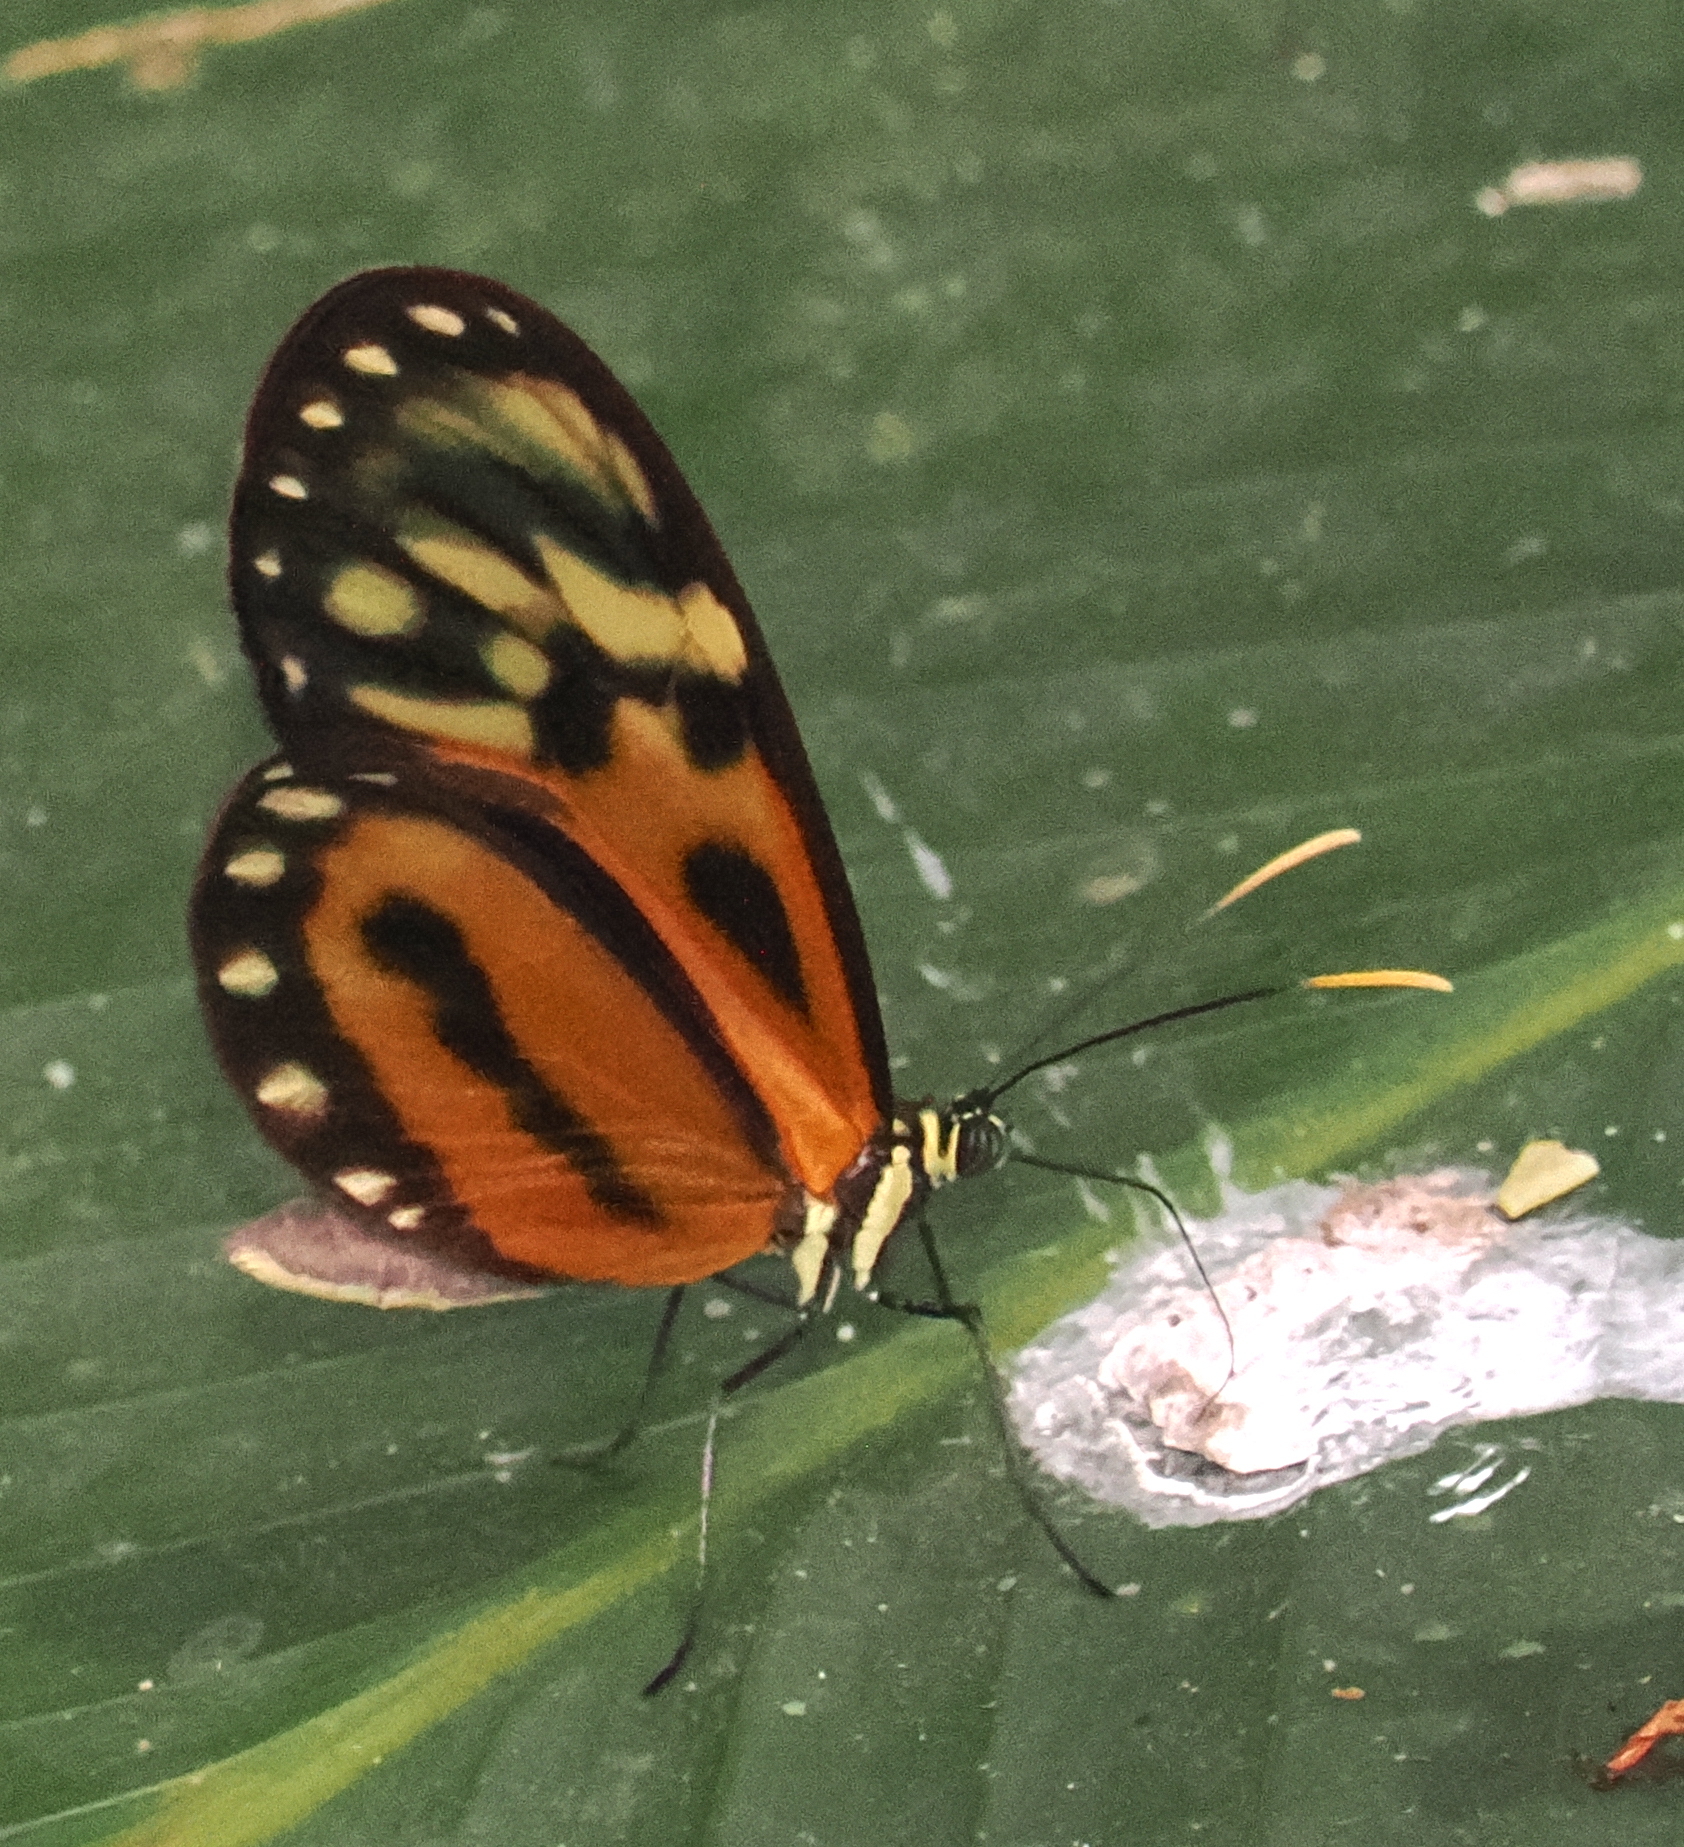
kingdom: Animalia
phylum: Arthropoda
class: Insecta
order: Lepidoptera
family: Nymphalidae
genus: Ceratinia
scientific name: Ceratinia iolaia
